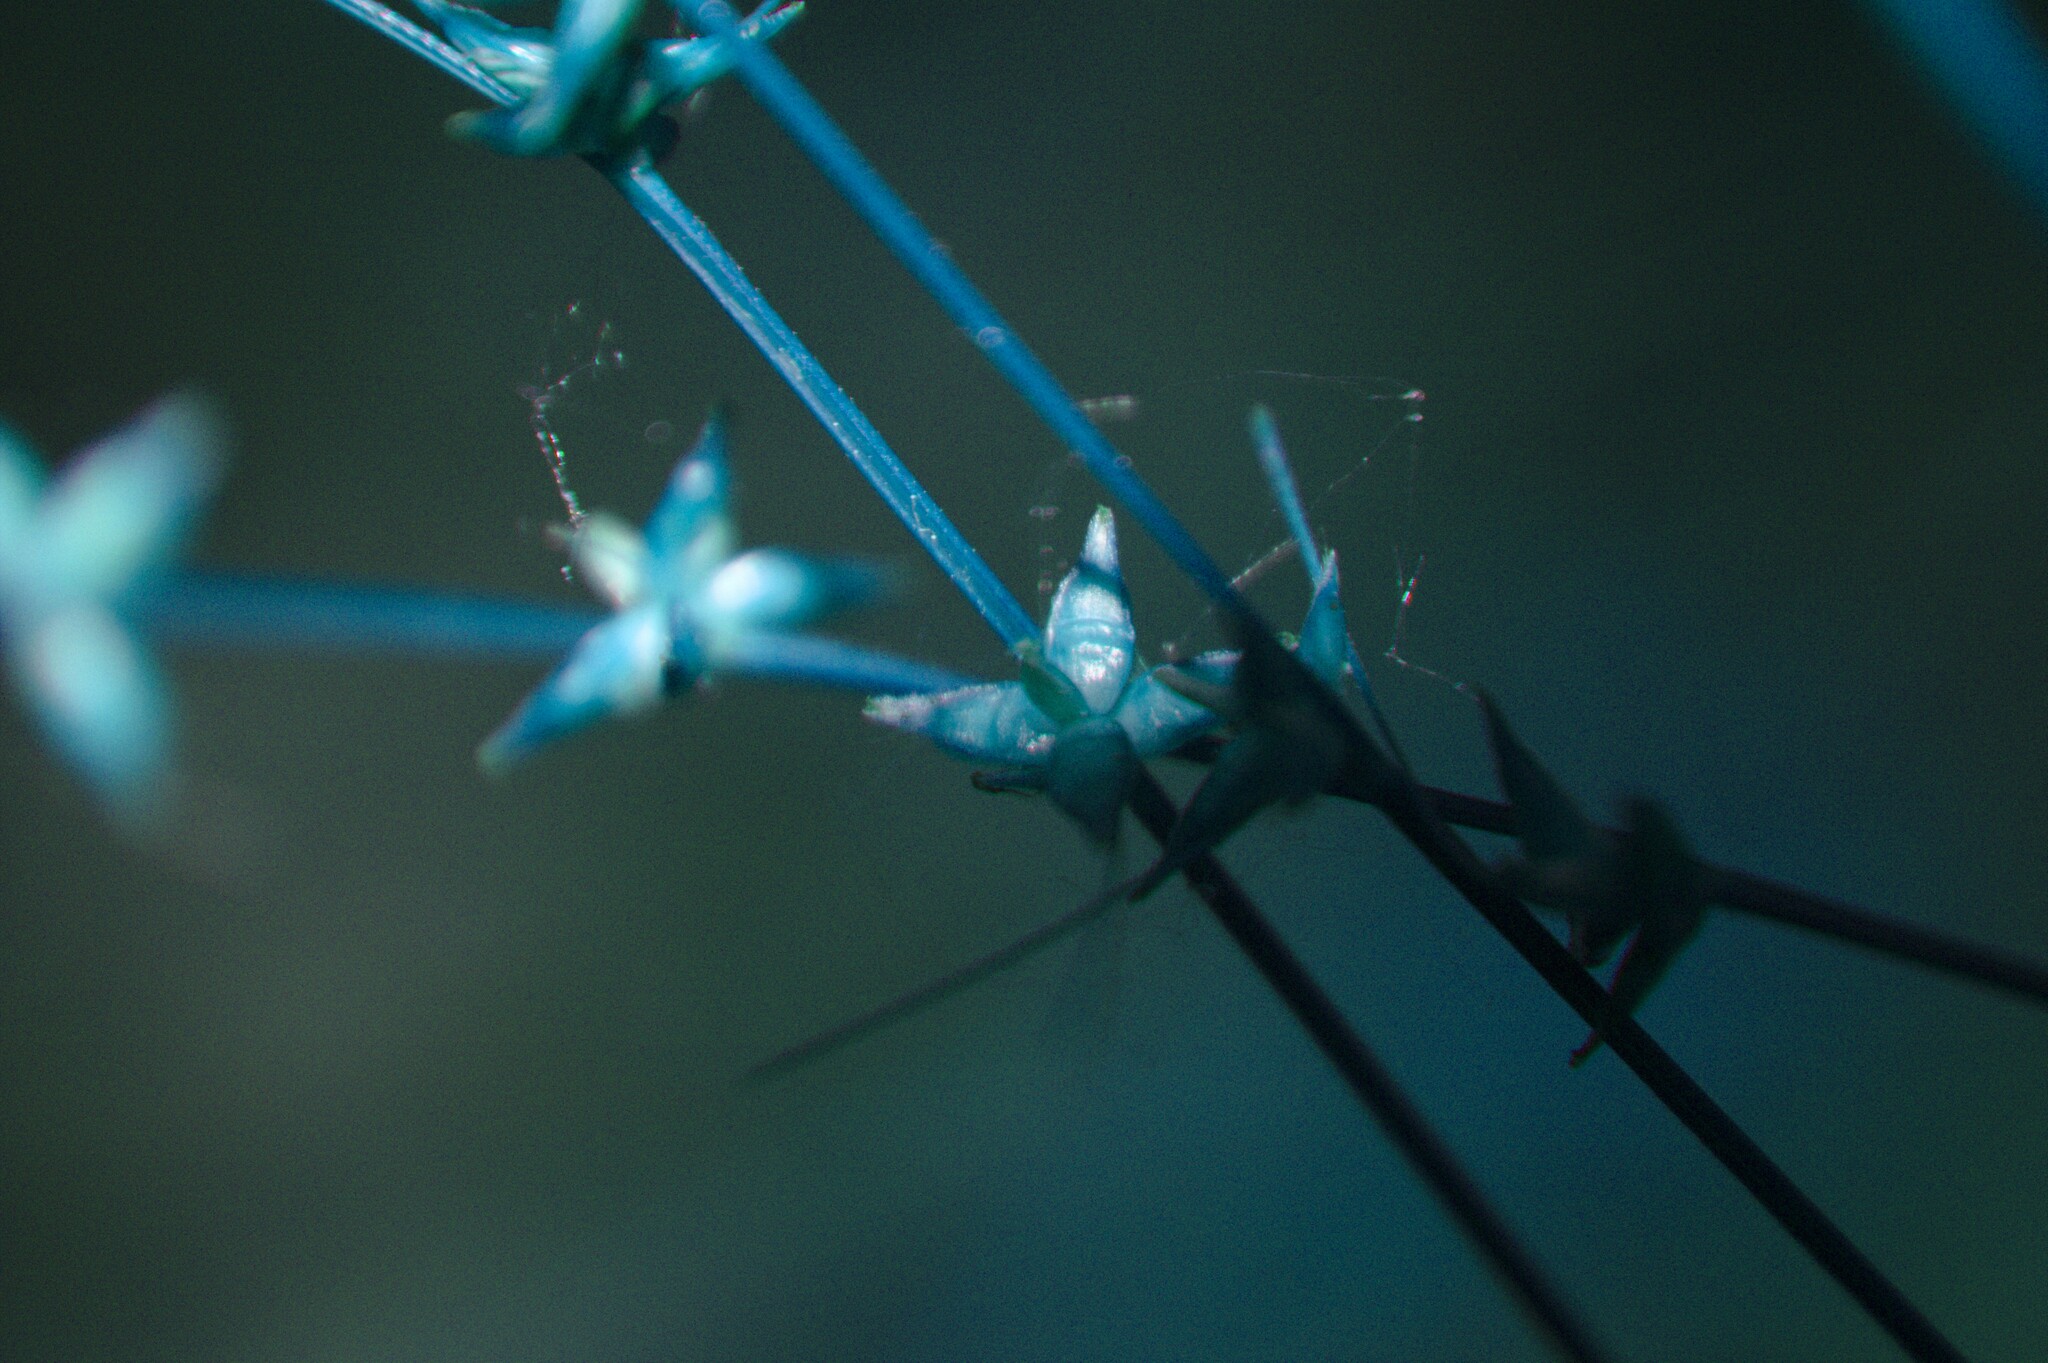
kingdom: Plantae
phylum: Tracheophyta
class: Liliopsida
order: Poales
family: Cyperaceae
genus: Carex
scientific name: Carex radiata
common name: Eastern star sedge
